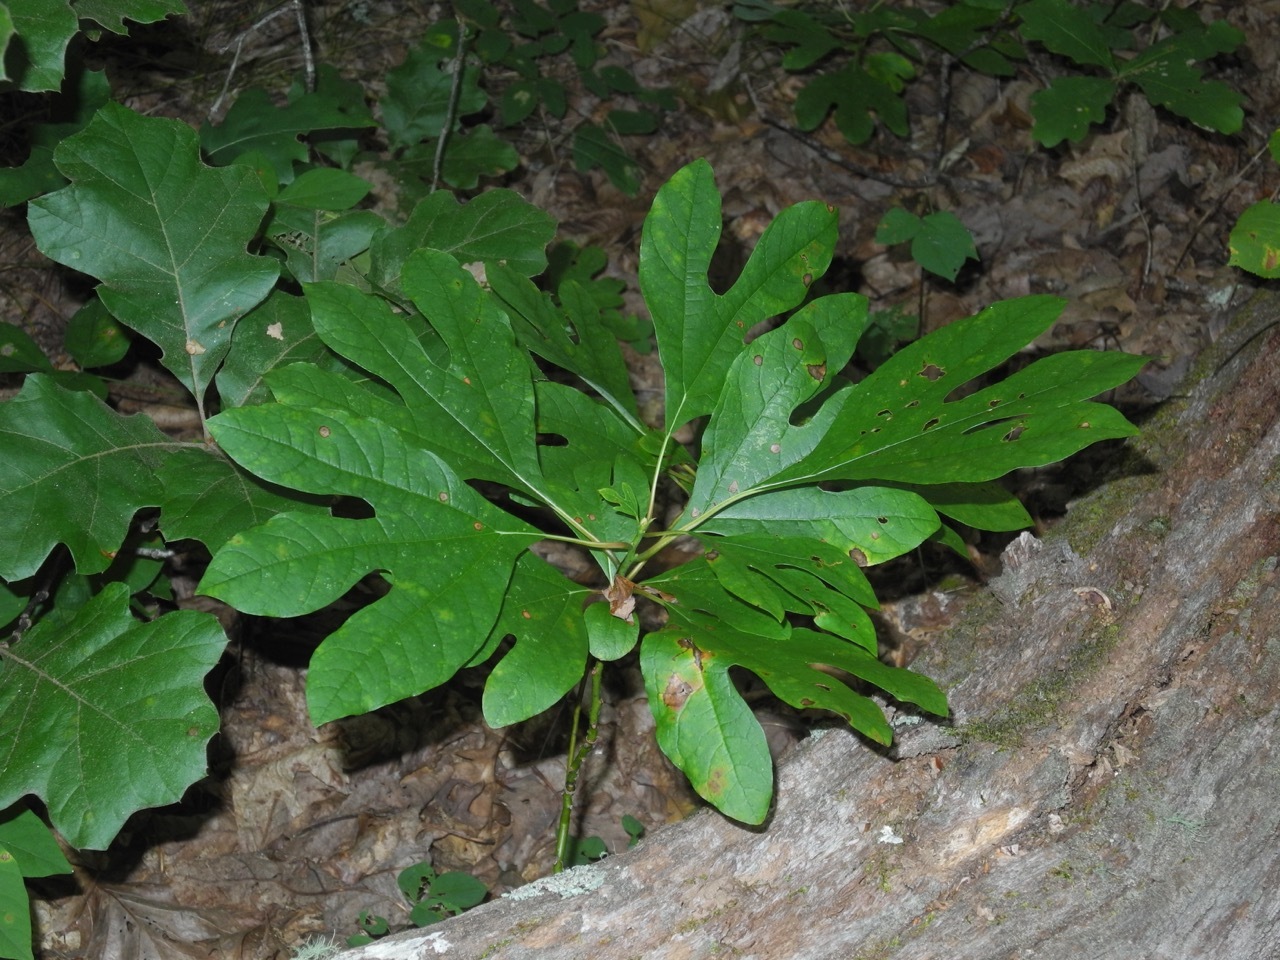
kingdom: Plantae
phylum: Tracheophyta
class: Magnoliopsida
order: Laurales
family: Lauraceae
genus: Sassafras
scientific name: Sassafras albidum
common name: Sassafras
